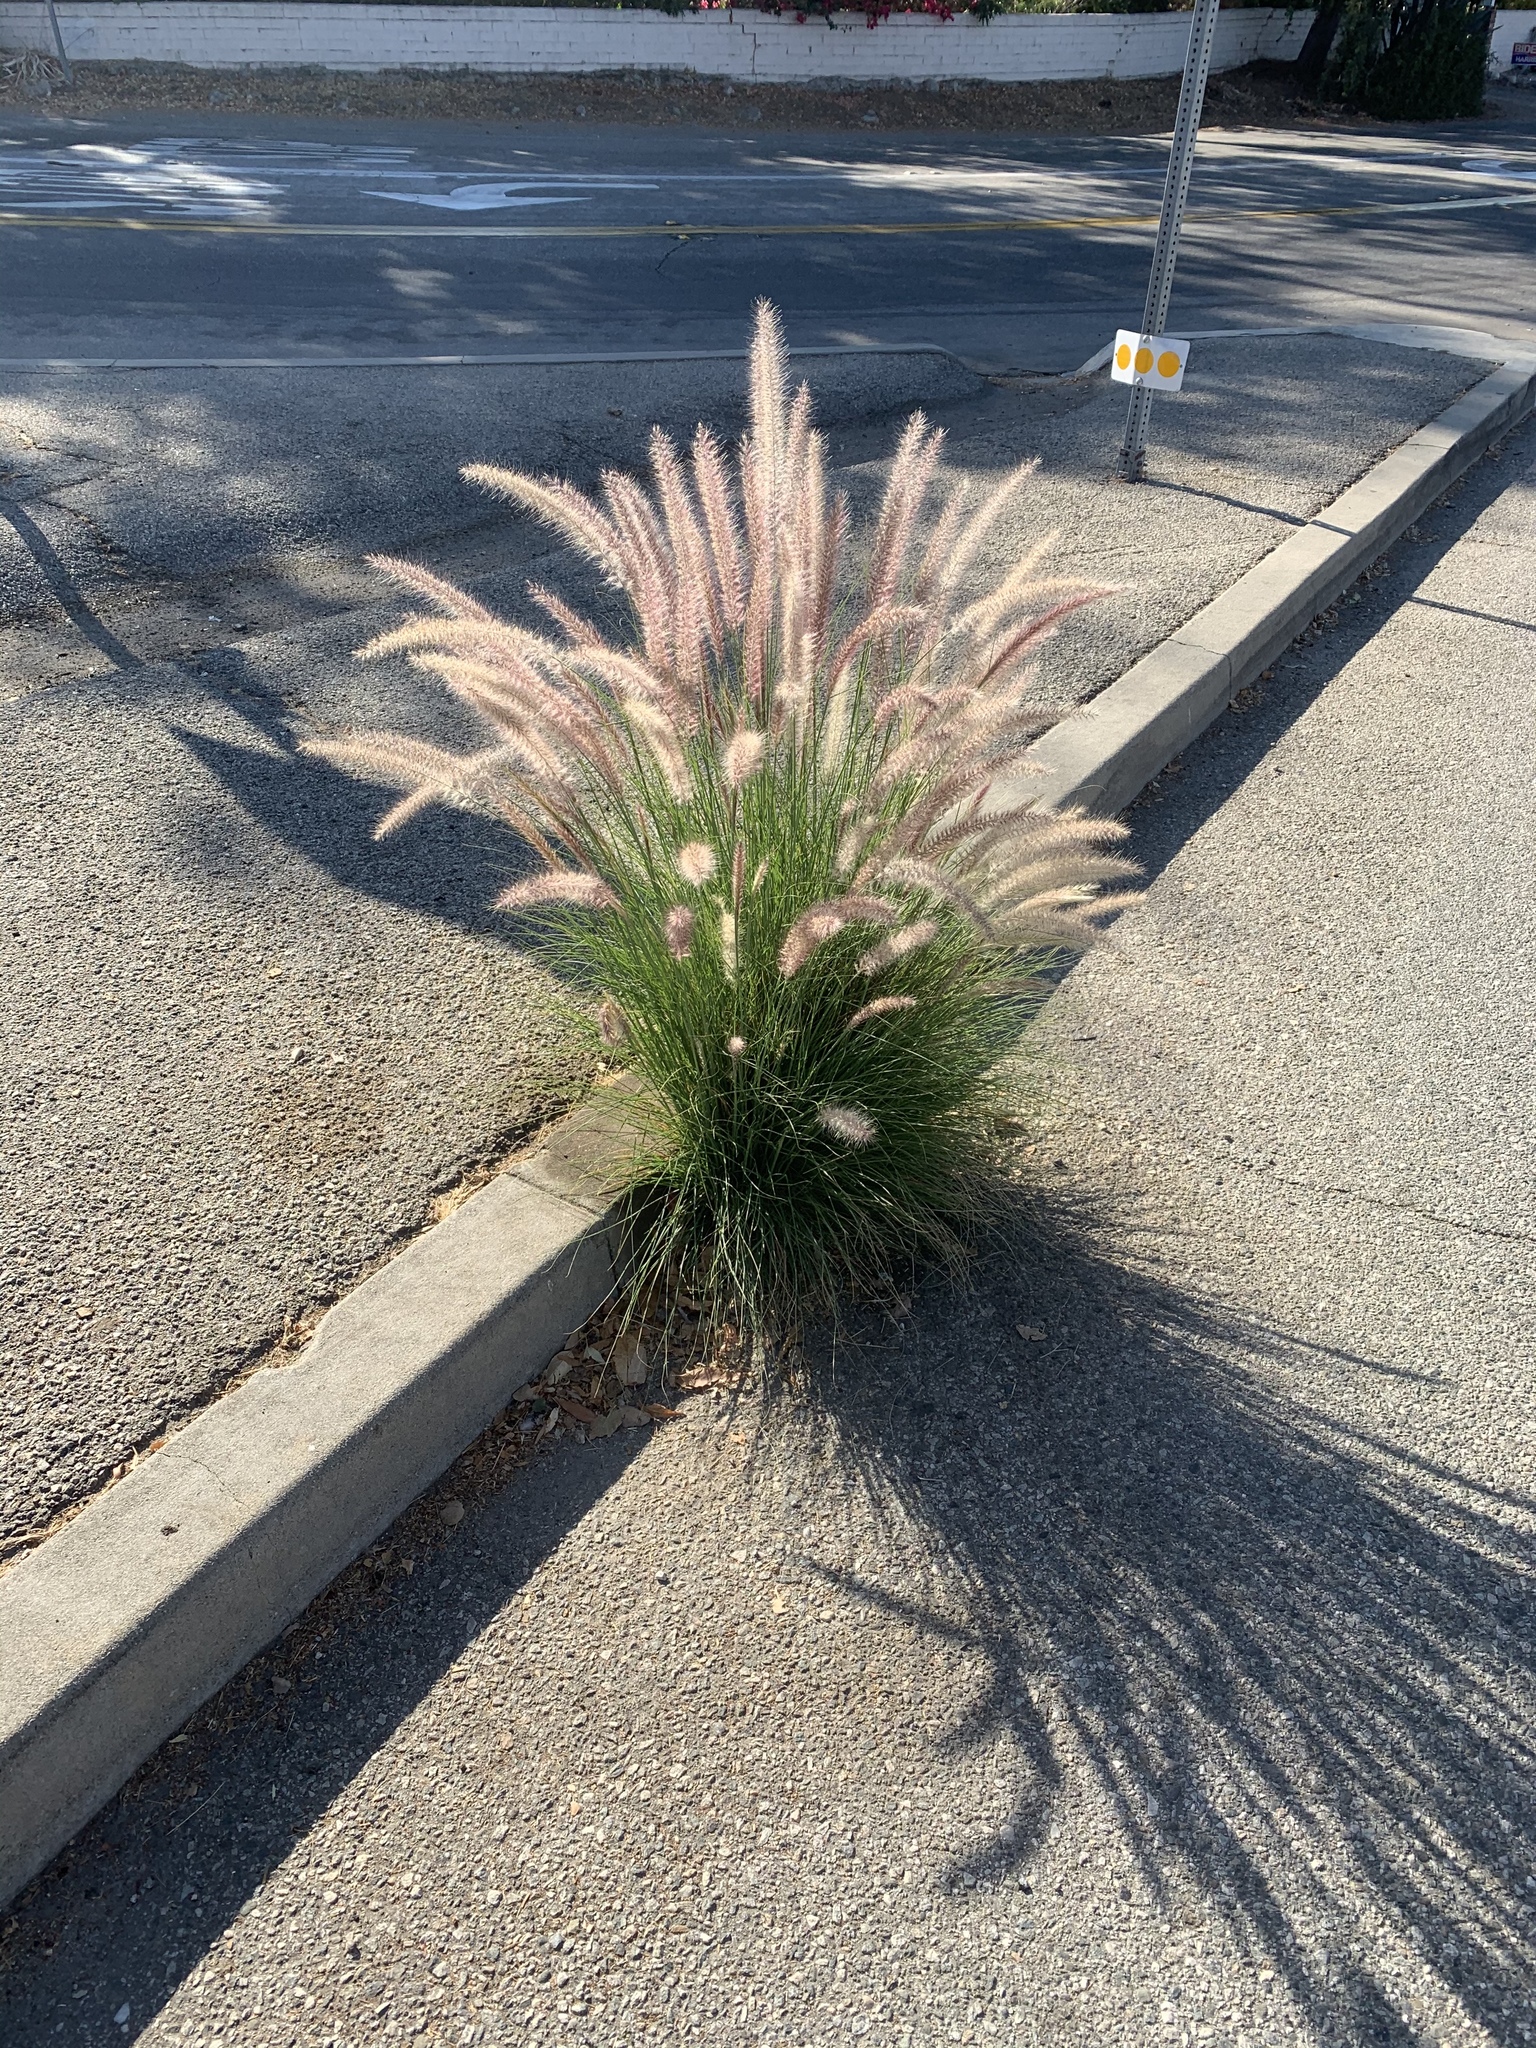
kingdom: Plantae
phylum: Tracheophyta
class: Liliopsida
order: Poales
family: Poaceae
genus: Cenchrus
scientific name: Cenchrus setaceus
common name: Crimson fountaingrass
